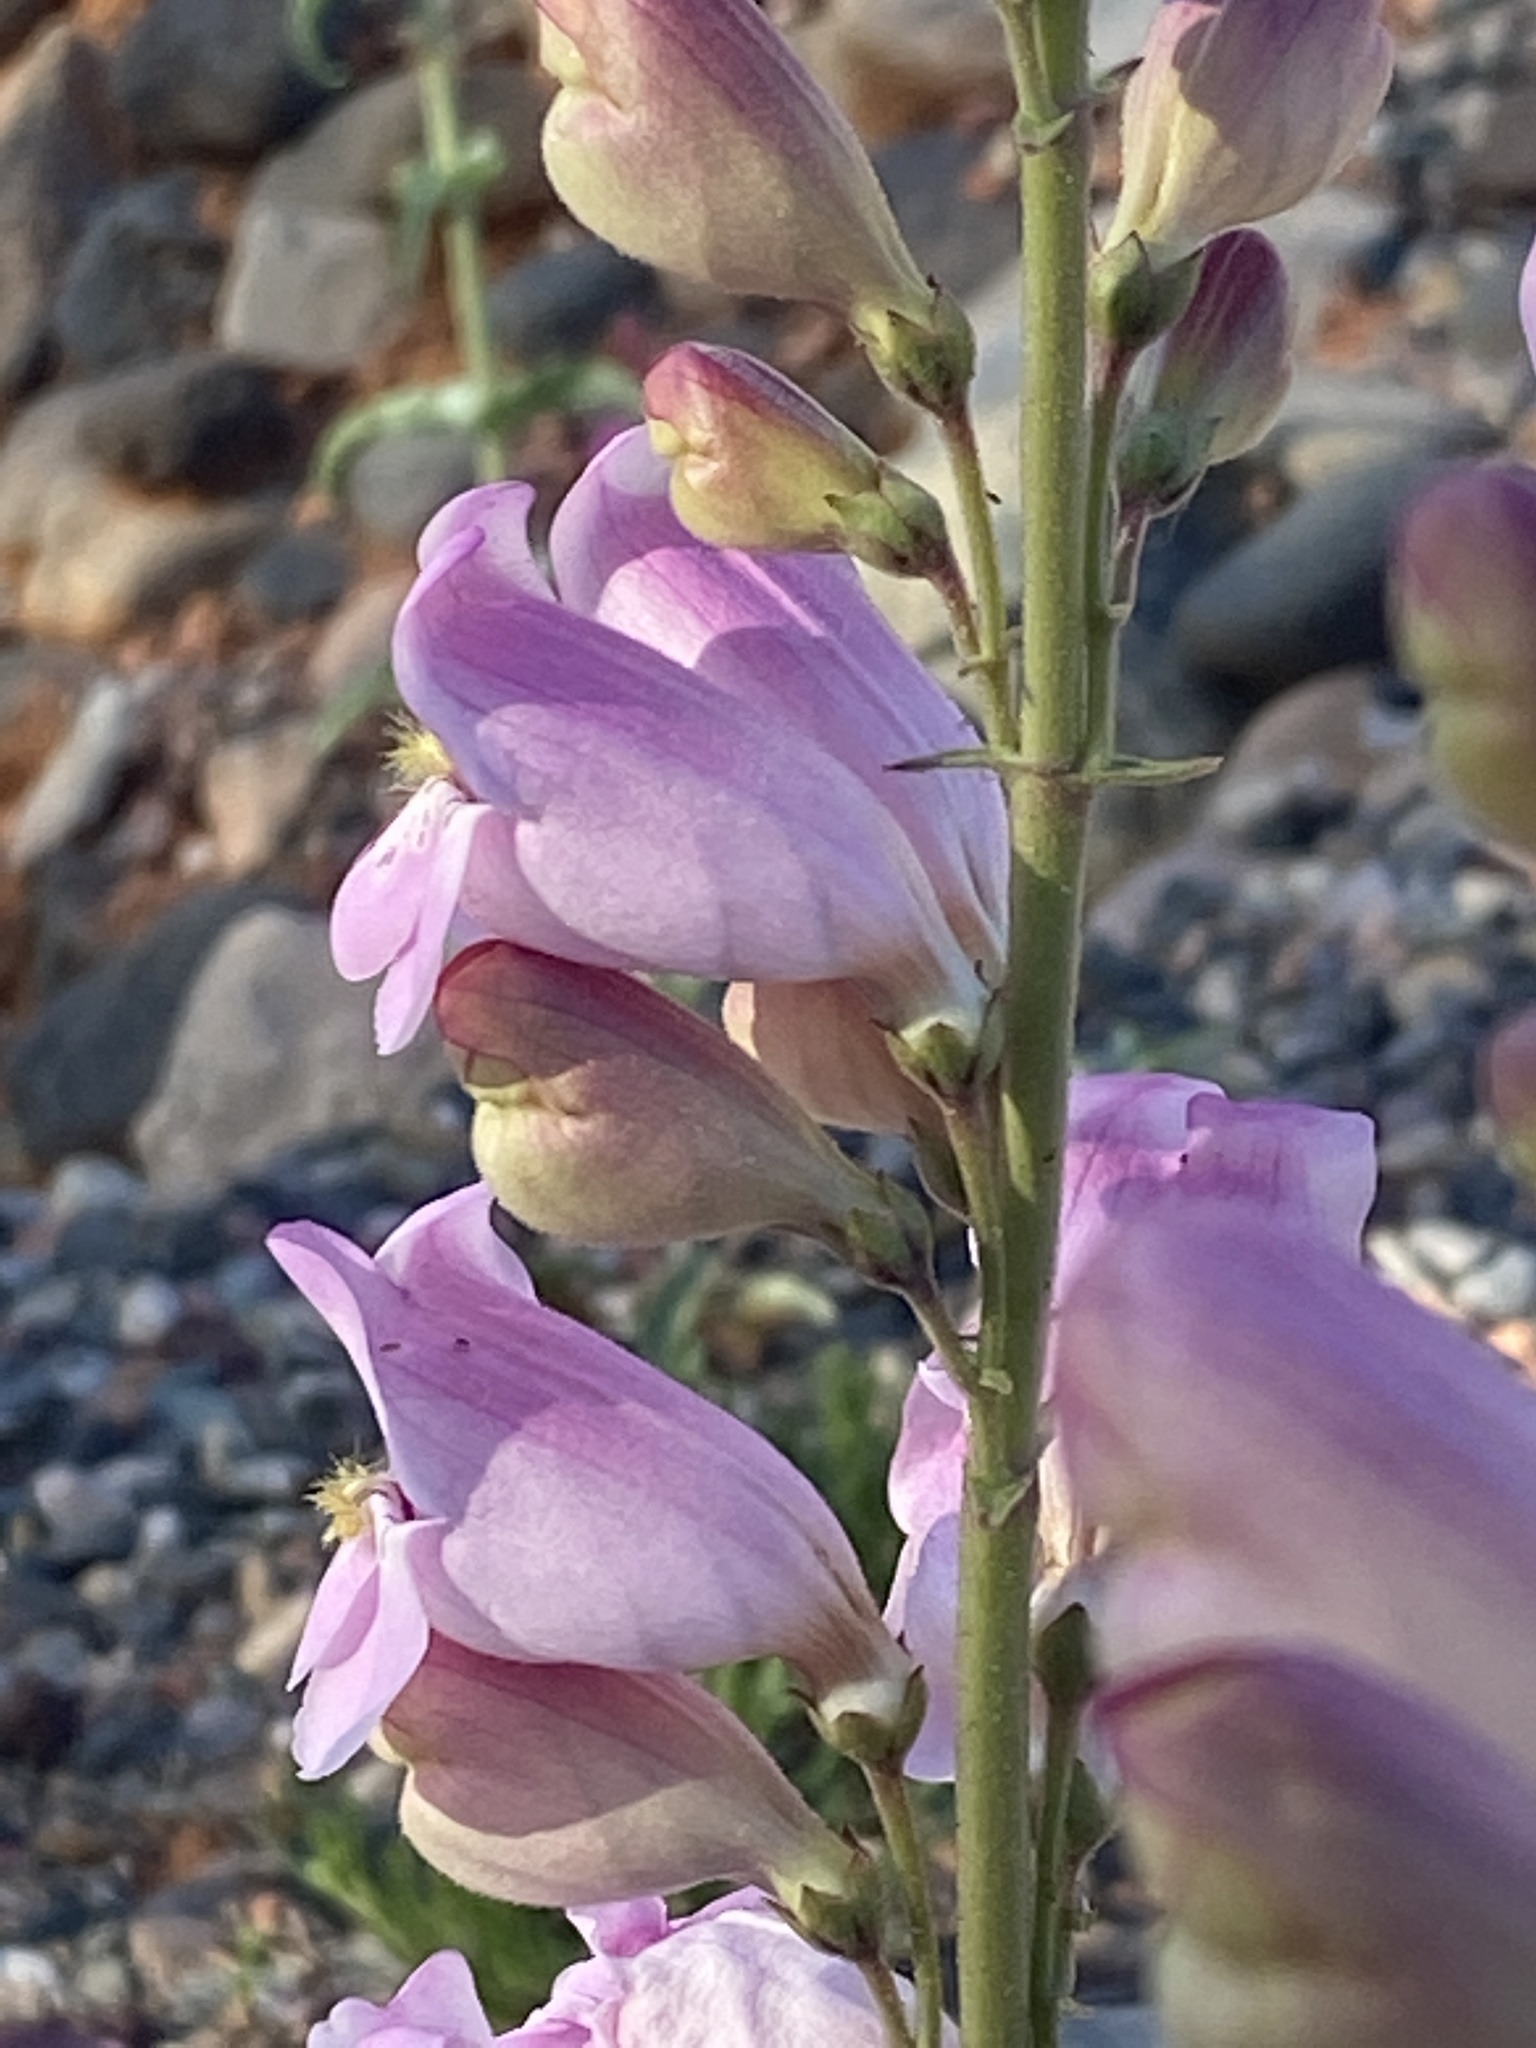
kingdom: Plantae
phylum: Tracheophyta
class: Magnoliopsida
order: Lamiales
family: Plantaginaceae
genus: Penstemon
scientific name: Penstemon palmeri
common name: Palmer penstemon
